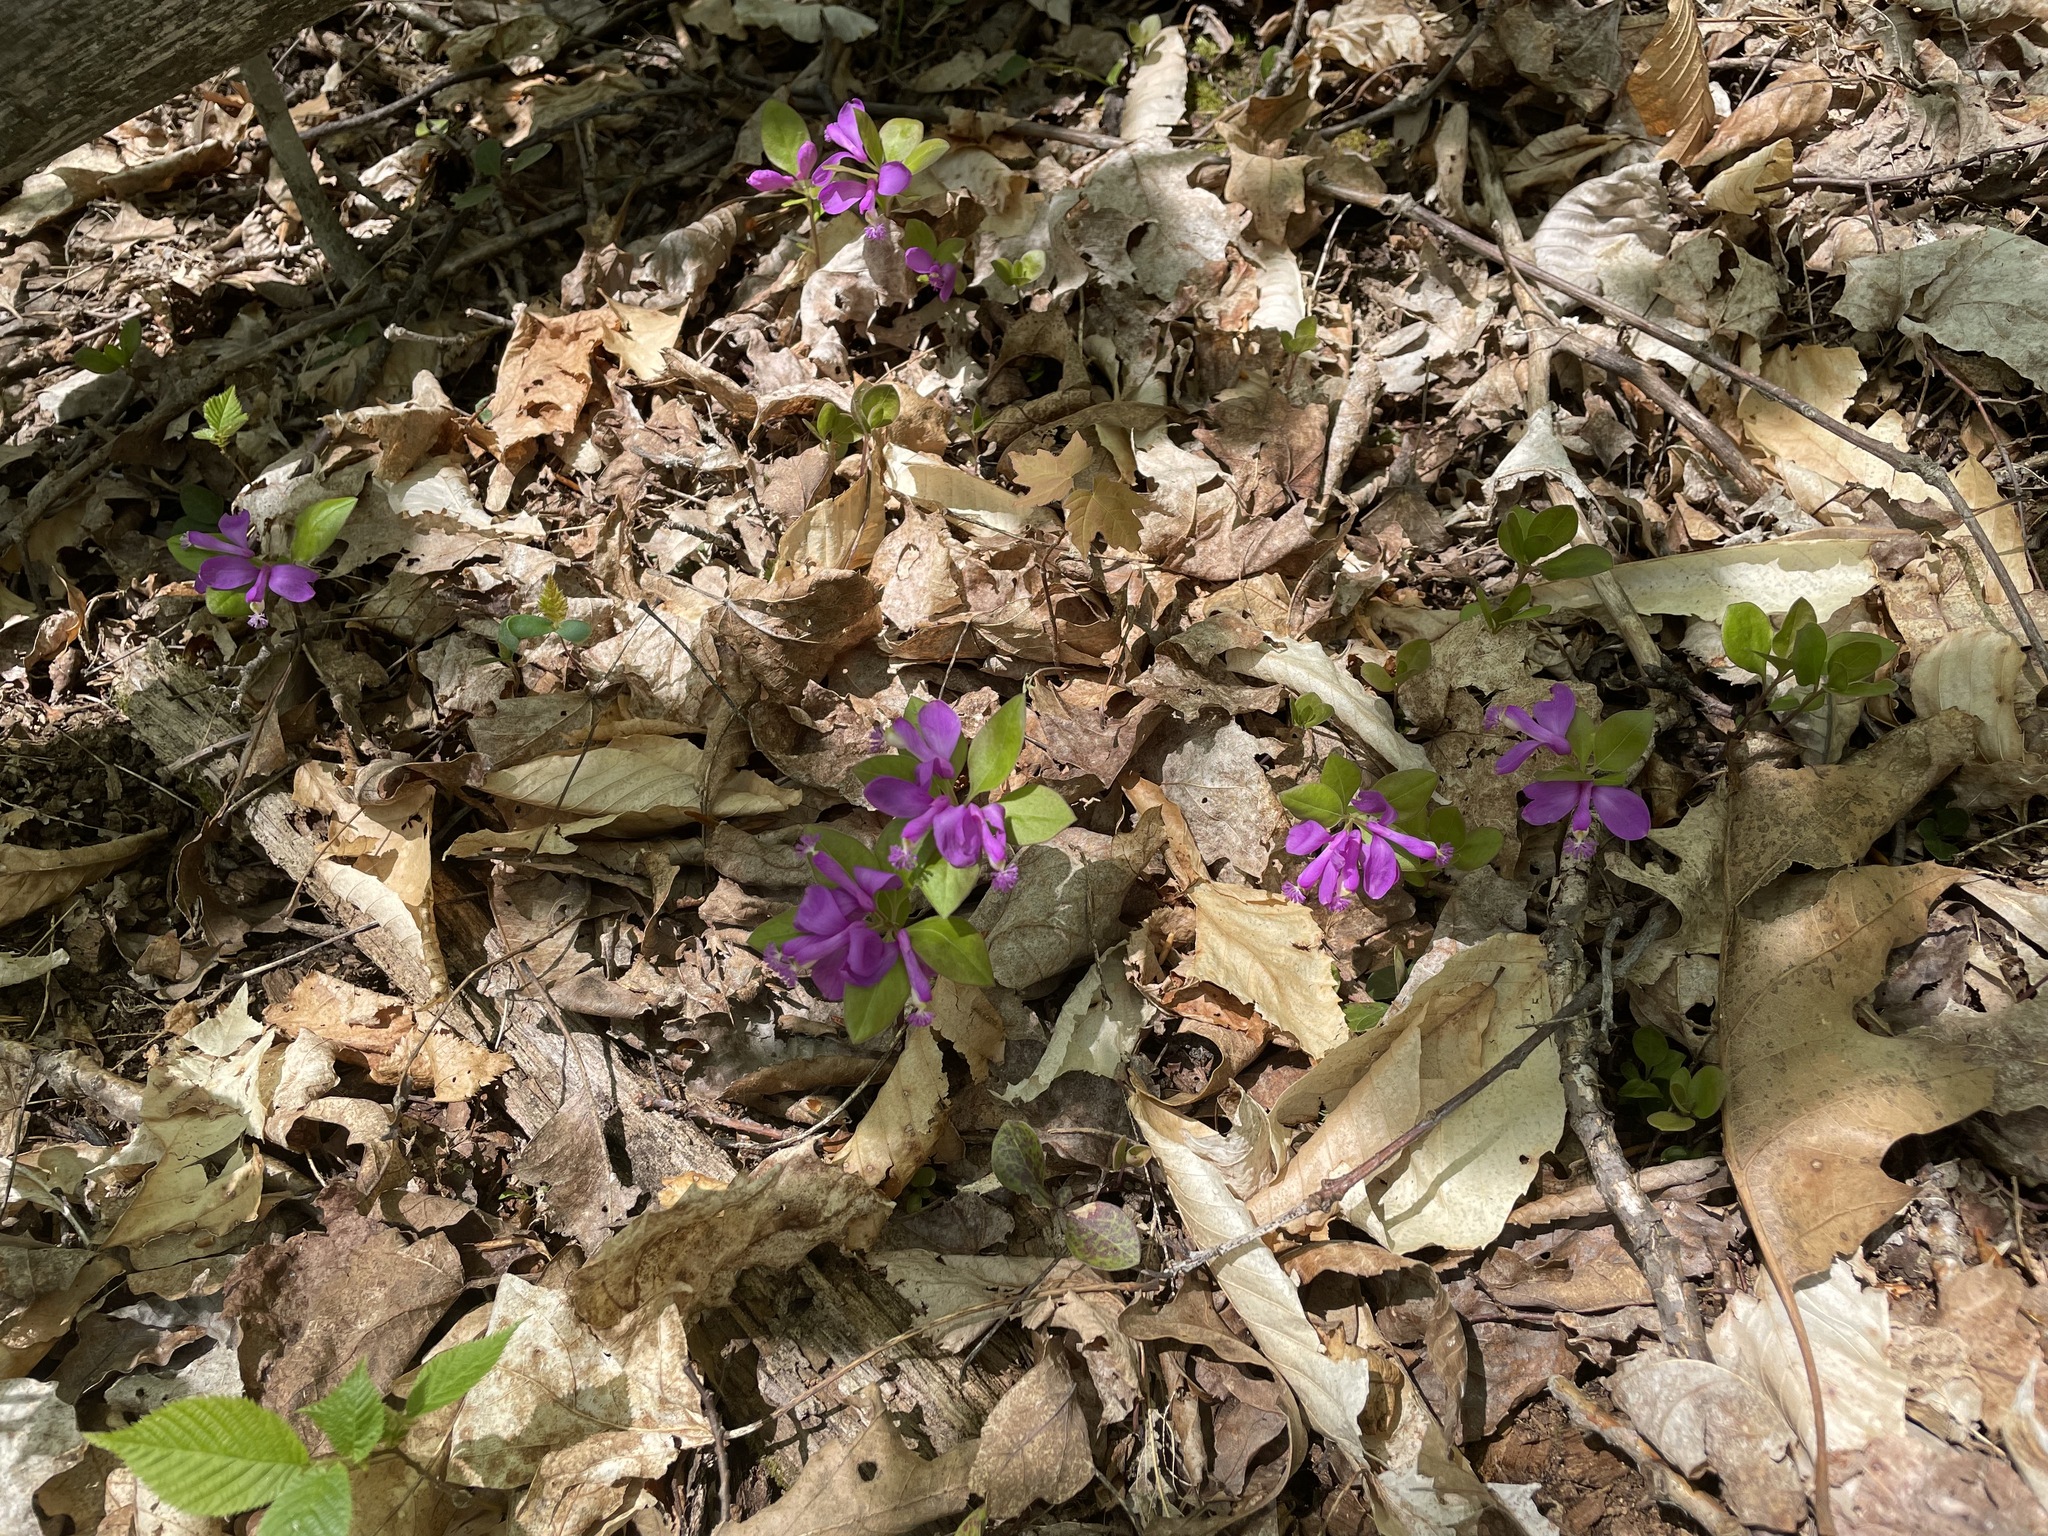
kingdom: Plantae
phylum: Tracheophyta
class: Magnoliopsida
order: Fabales
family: Polygalaceae
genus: Polygaloides
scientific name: Polygaloides paucifolia
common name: Bird-on-the-wing
